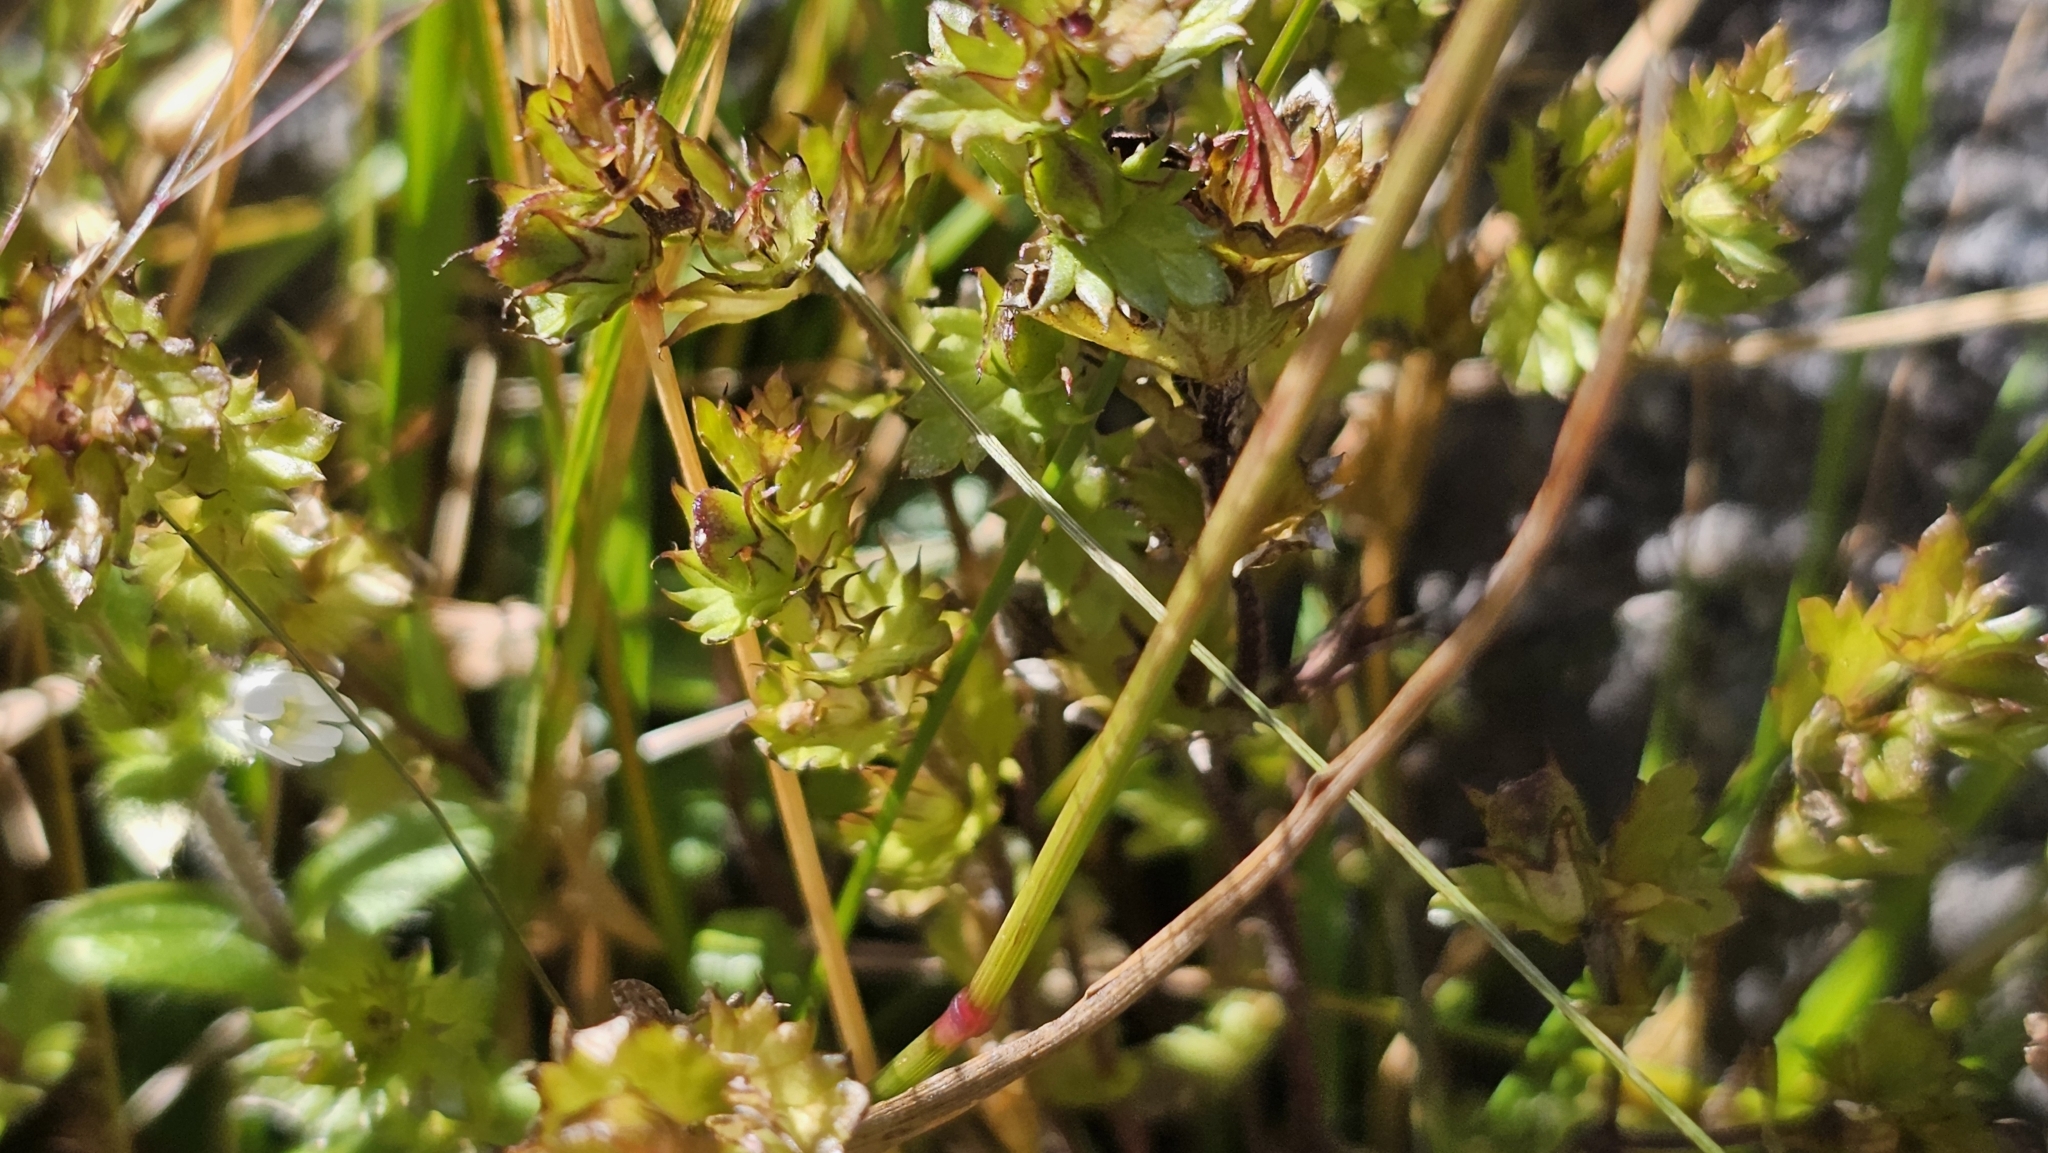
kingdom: Plantae
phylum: Tracheophyta
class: Magnoliopsida
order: Lamiales
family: Orobanchaceae
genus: Euphrasia
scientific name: Euphrasia nemorosa
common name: Common eyebright
